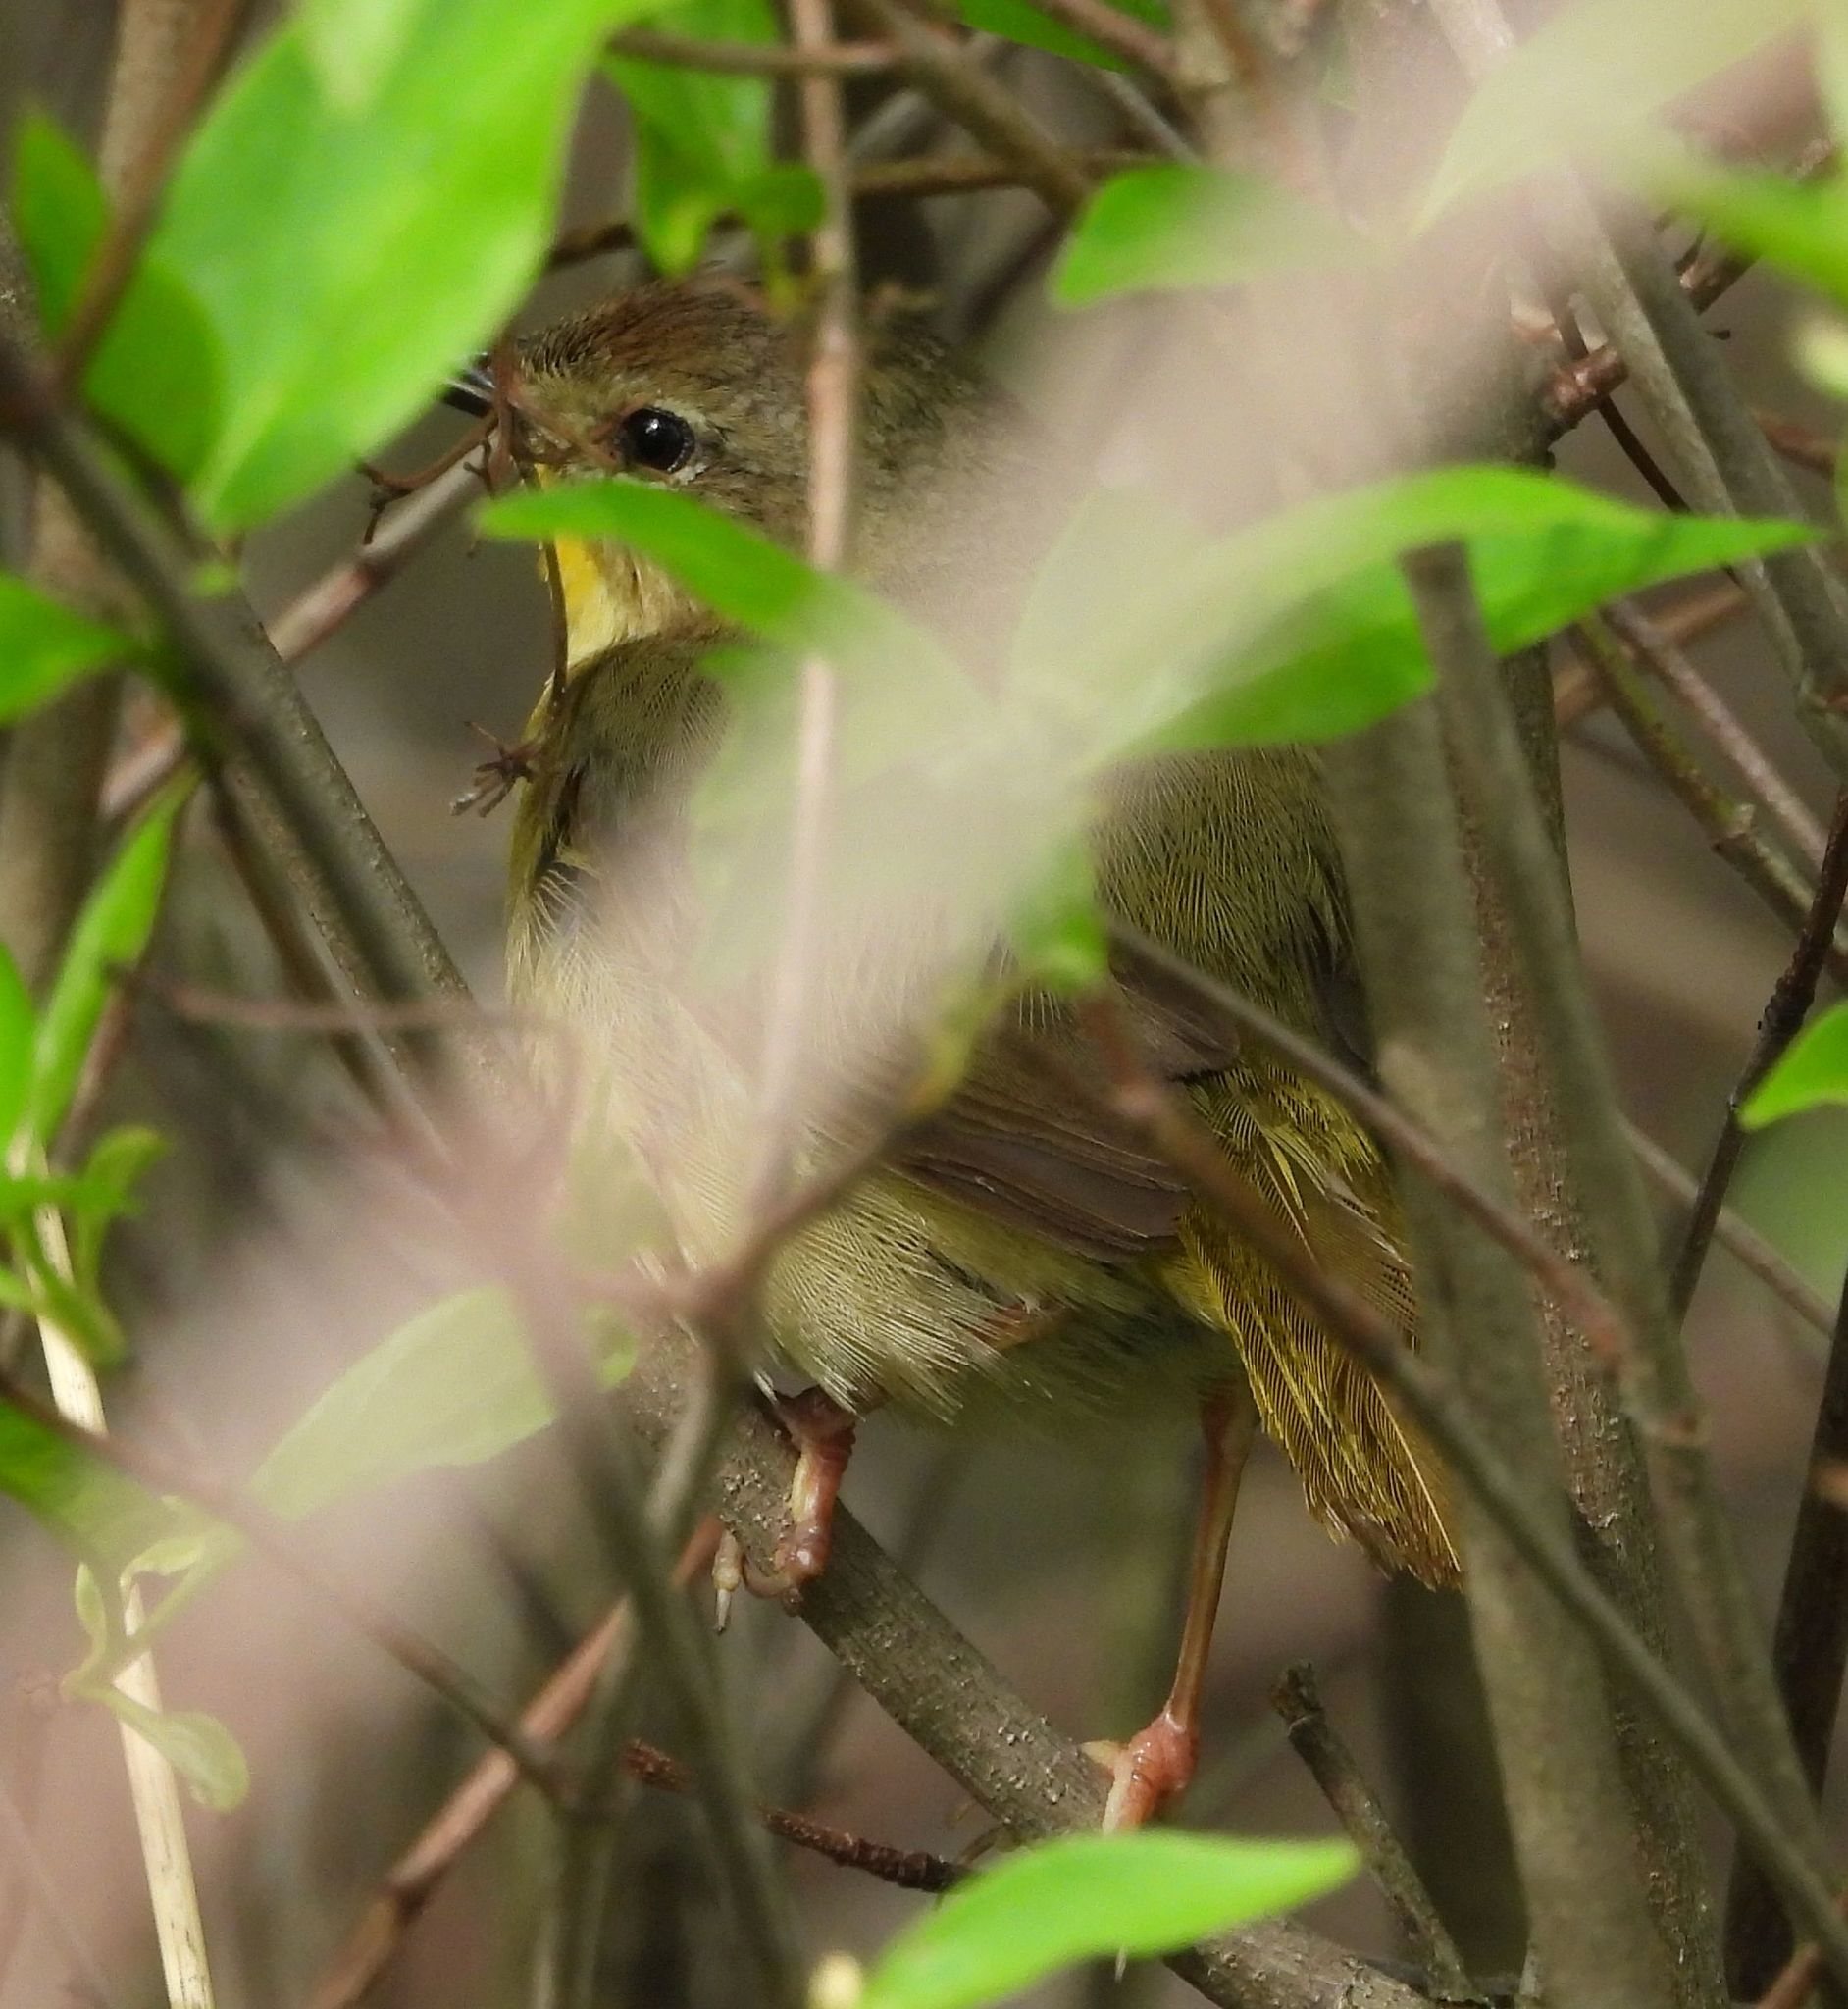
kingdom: Animalia
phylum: Chordata
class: Aves
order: Passeriformes
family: Parulidae
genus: Geothlypis
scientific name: Geothlypis trichas
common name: Common yellowthroat
